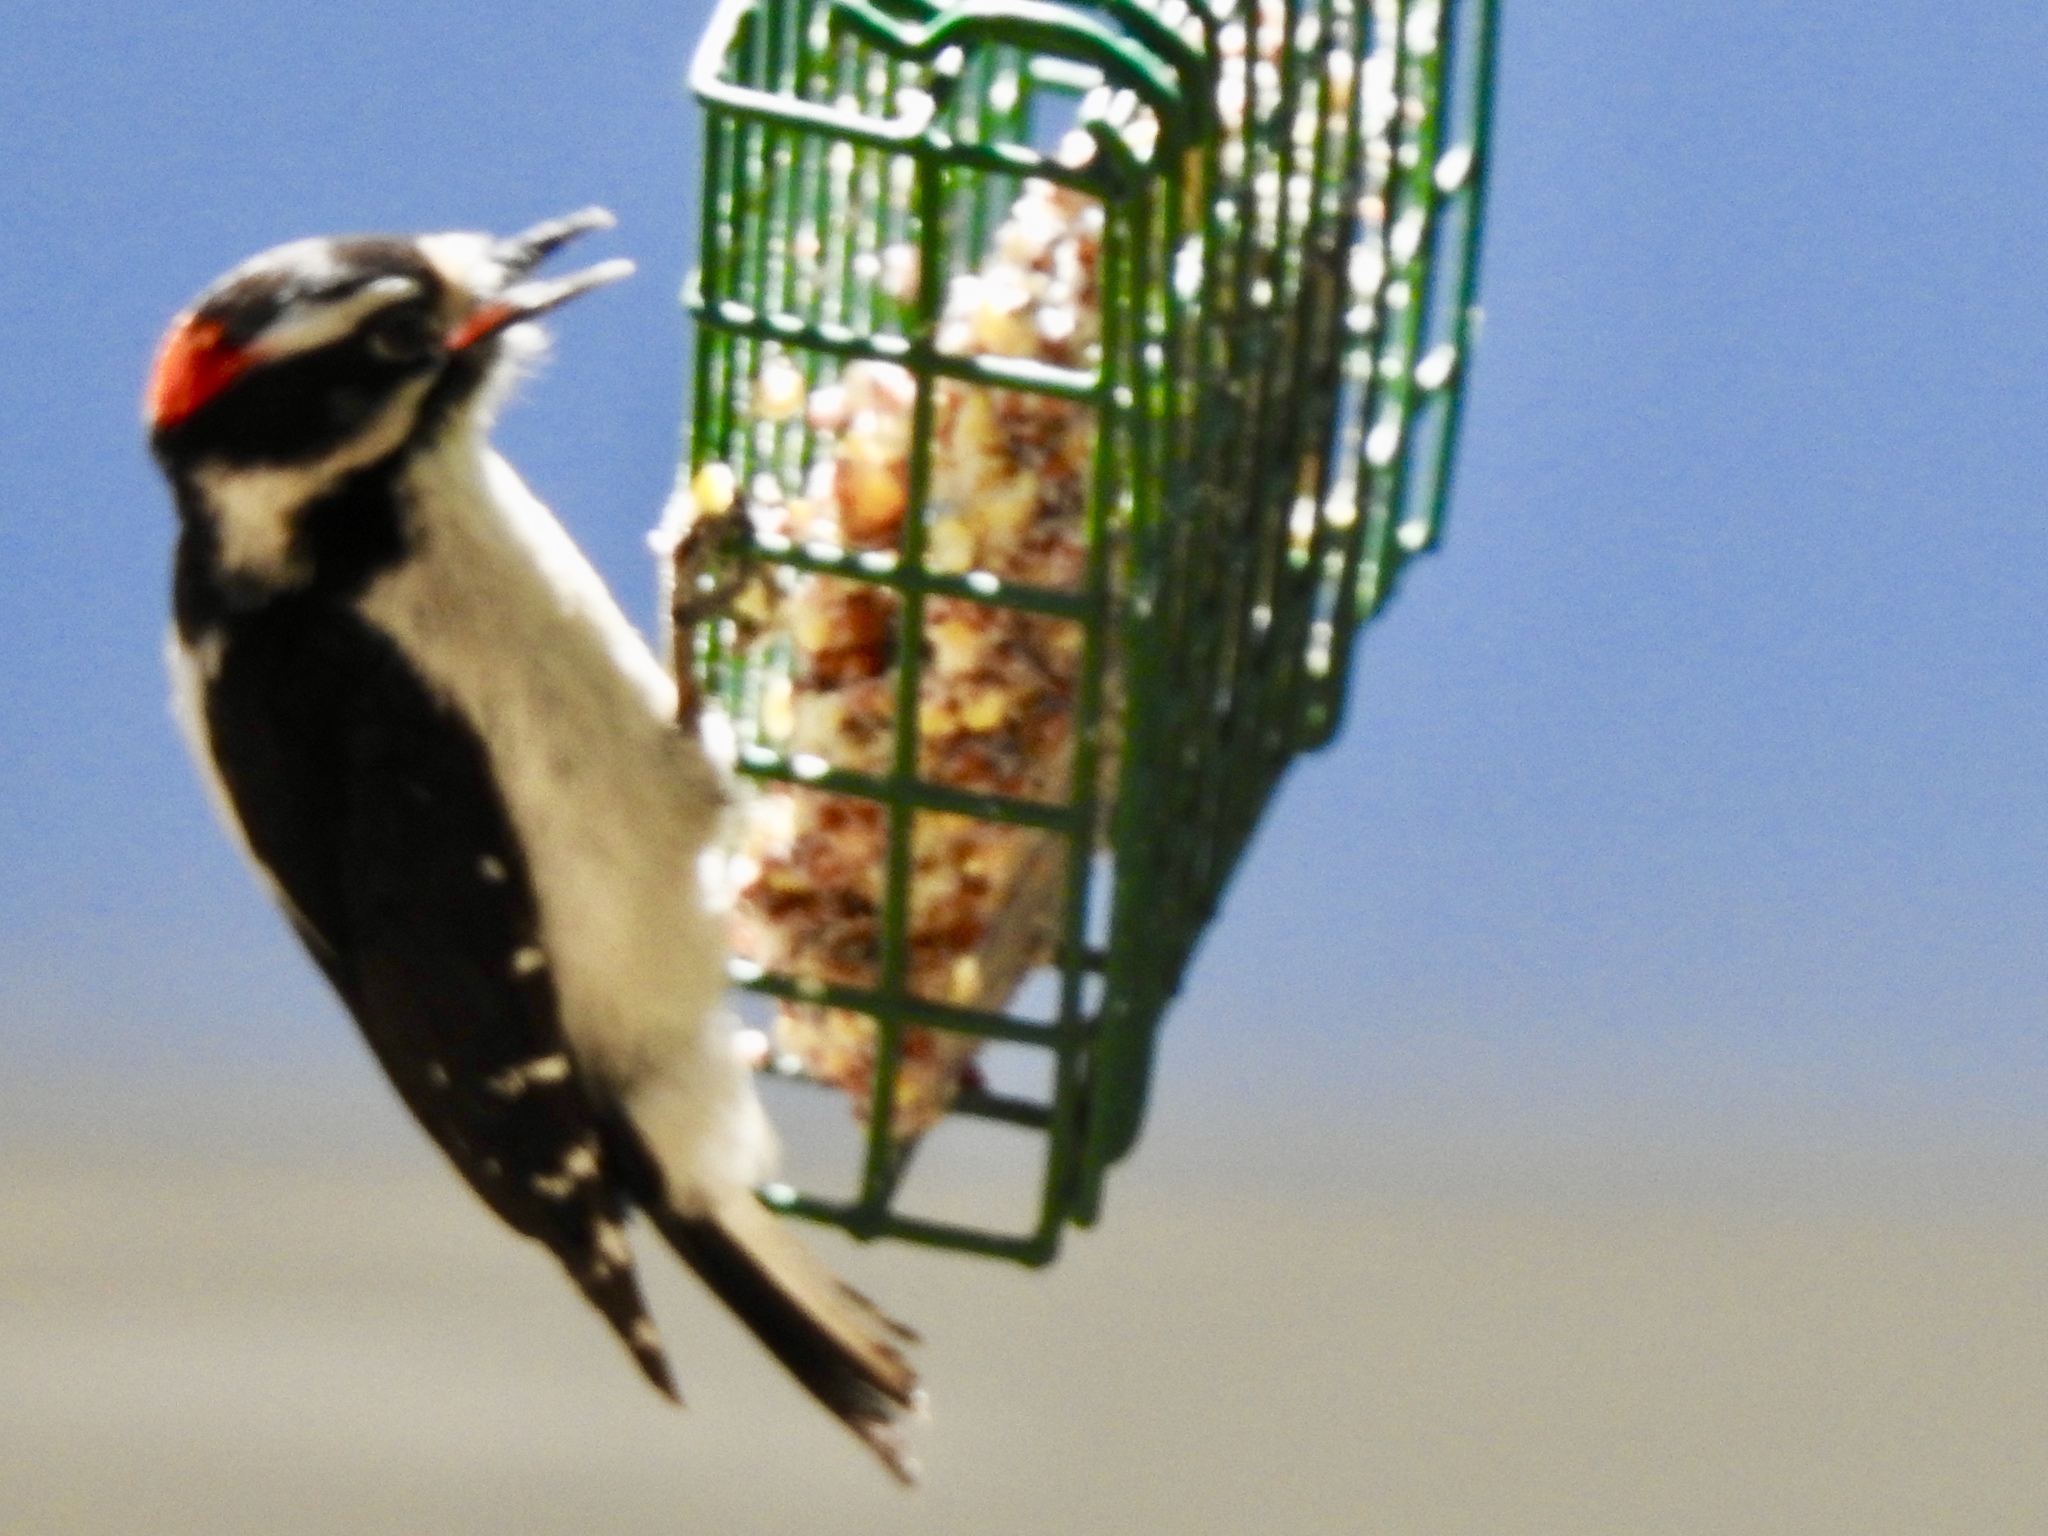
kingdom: Animalia
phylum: Chordata
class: Aves
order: Piciformes
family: Picidae
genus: Dryobates
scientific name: Dryobates pubescens
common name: Downy woodpecker
